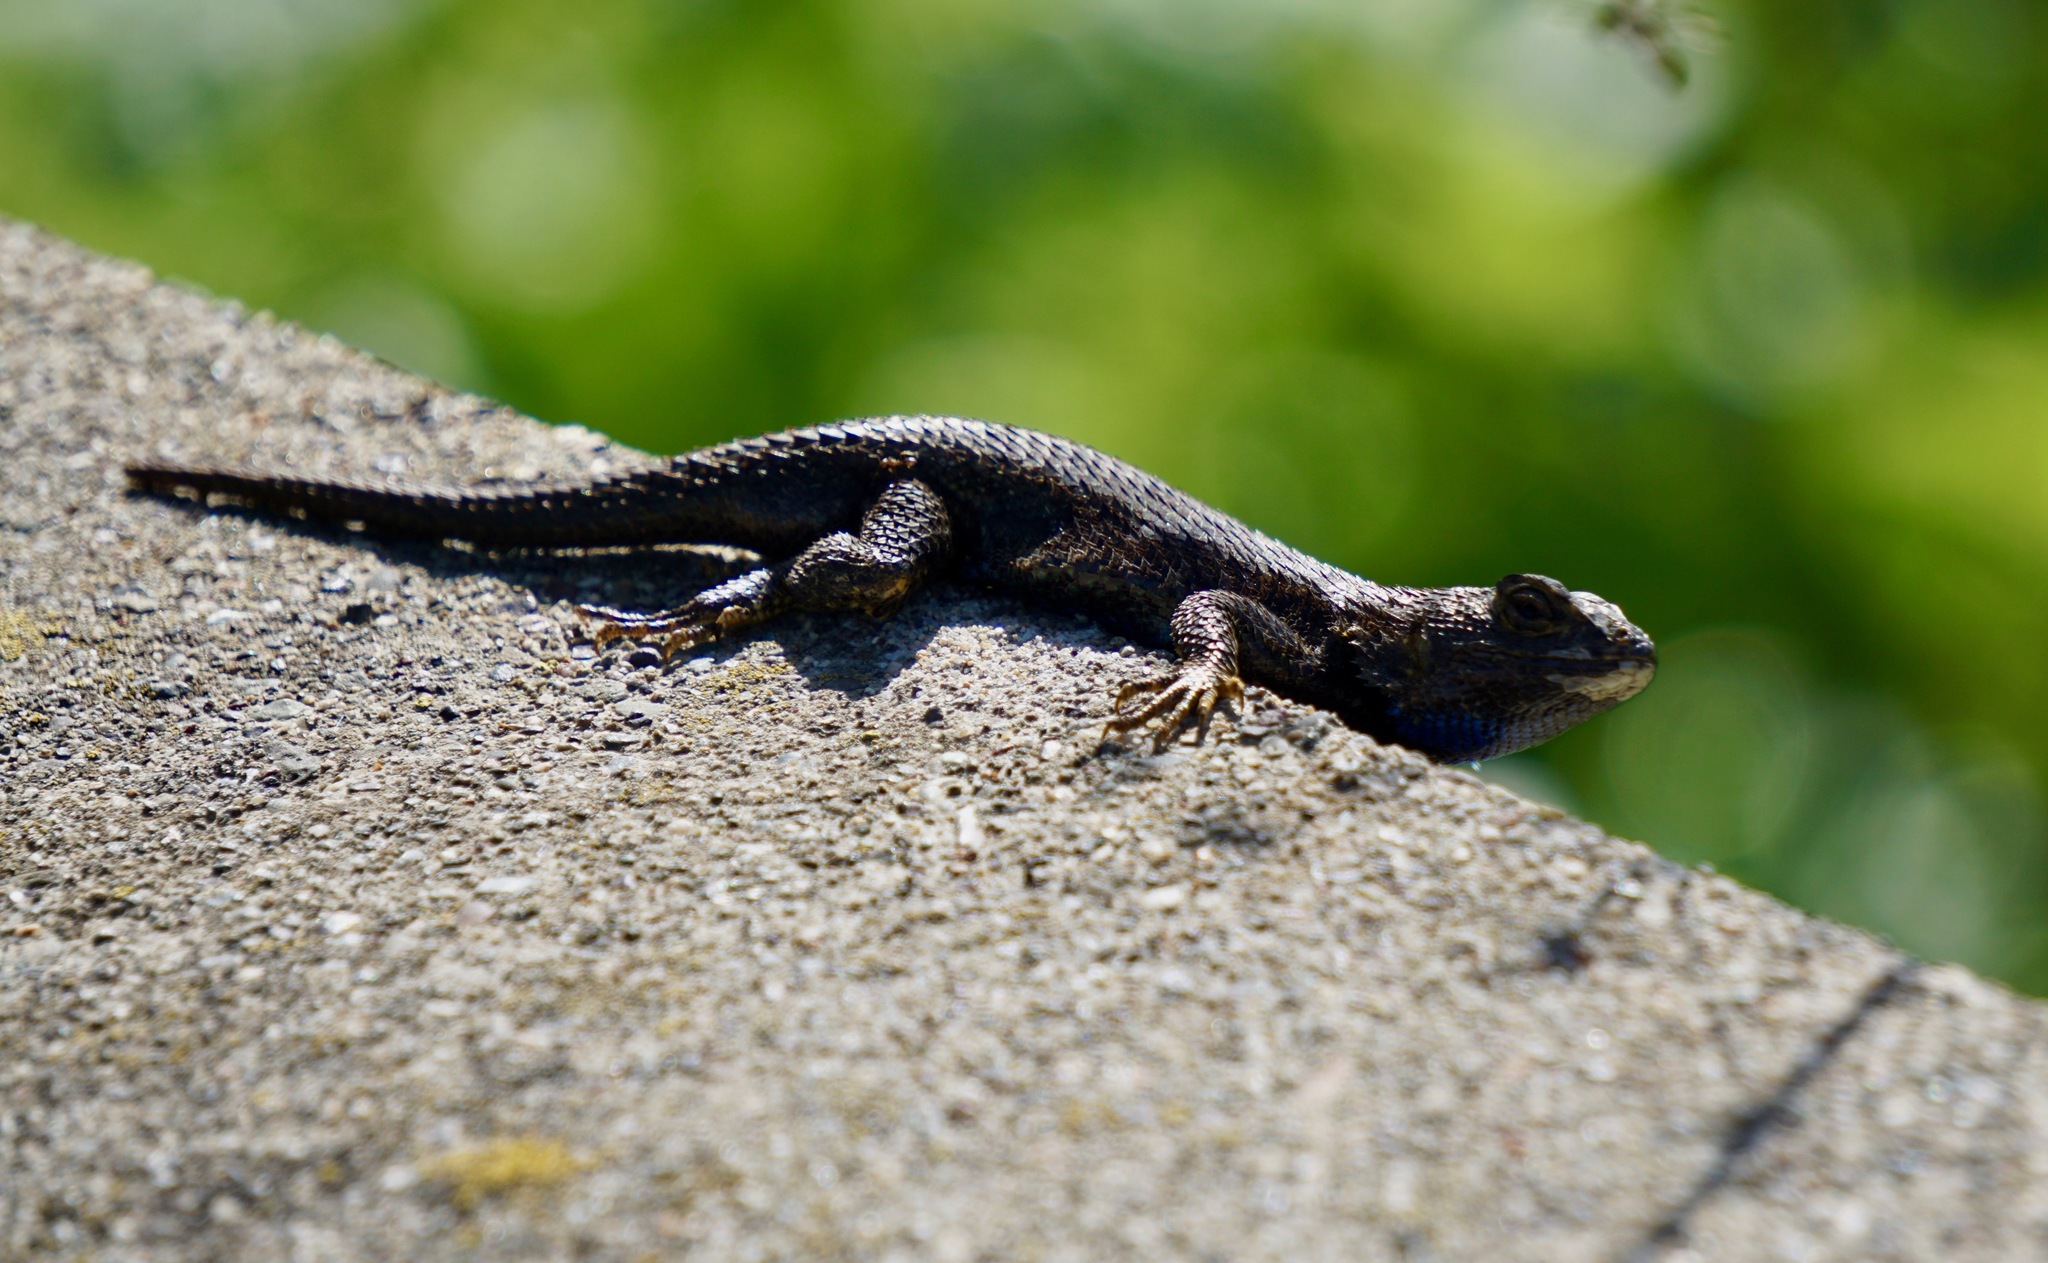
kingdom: Animalia
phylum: Chordata
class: Squamata
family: Phrynosomatidae
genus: Sceloporus
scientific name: Sceloporus occidentalis
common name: Western fence lizard
